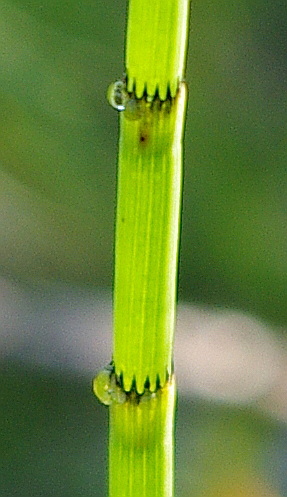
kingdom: Plantae
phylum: Tracheophyta
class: Polypodiopsida
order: Equisetales
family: Equisetaceae
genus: Equisetum
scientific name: Equisetum fluviatile
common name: Water horsetail
